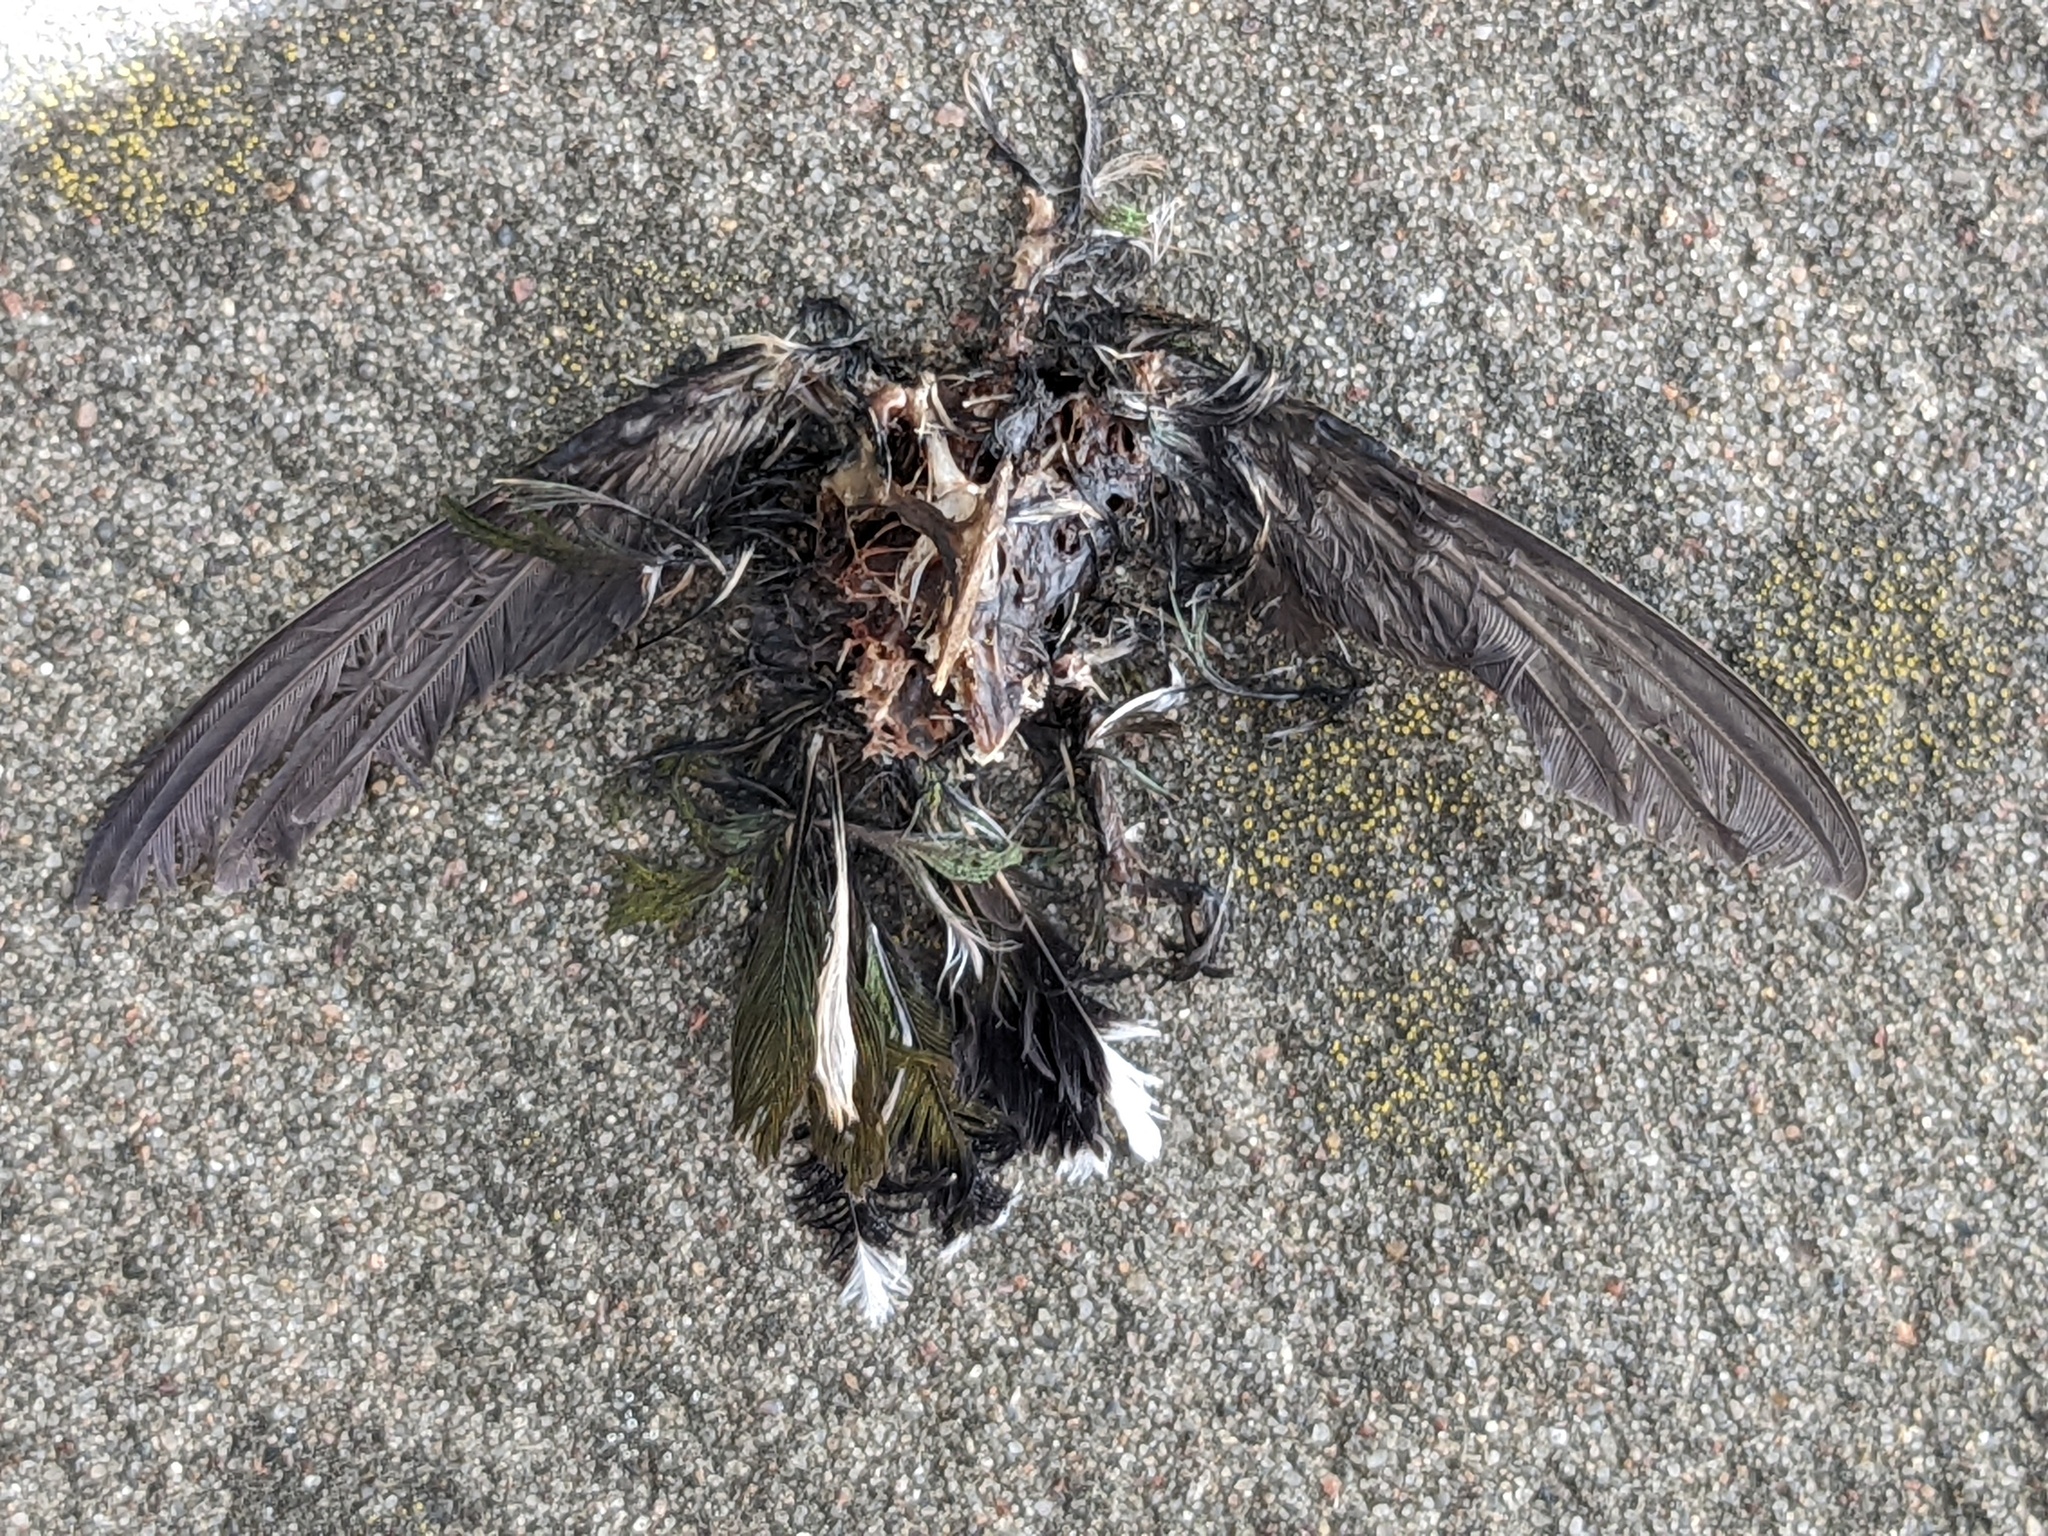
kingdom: Animalia
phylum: Chordata
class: Aves
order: Apodiformes
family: Trochilidae
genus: Archilochus
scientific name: Archilochus colubris
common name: Ruby-throated hummingbird
